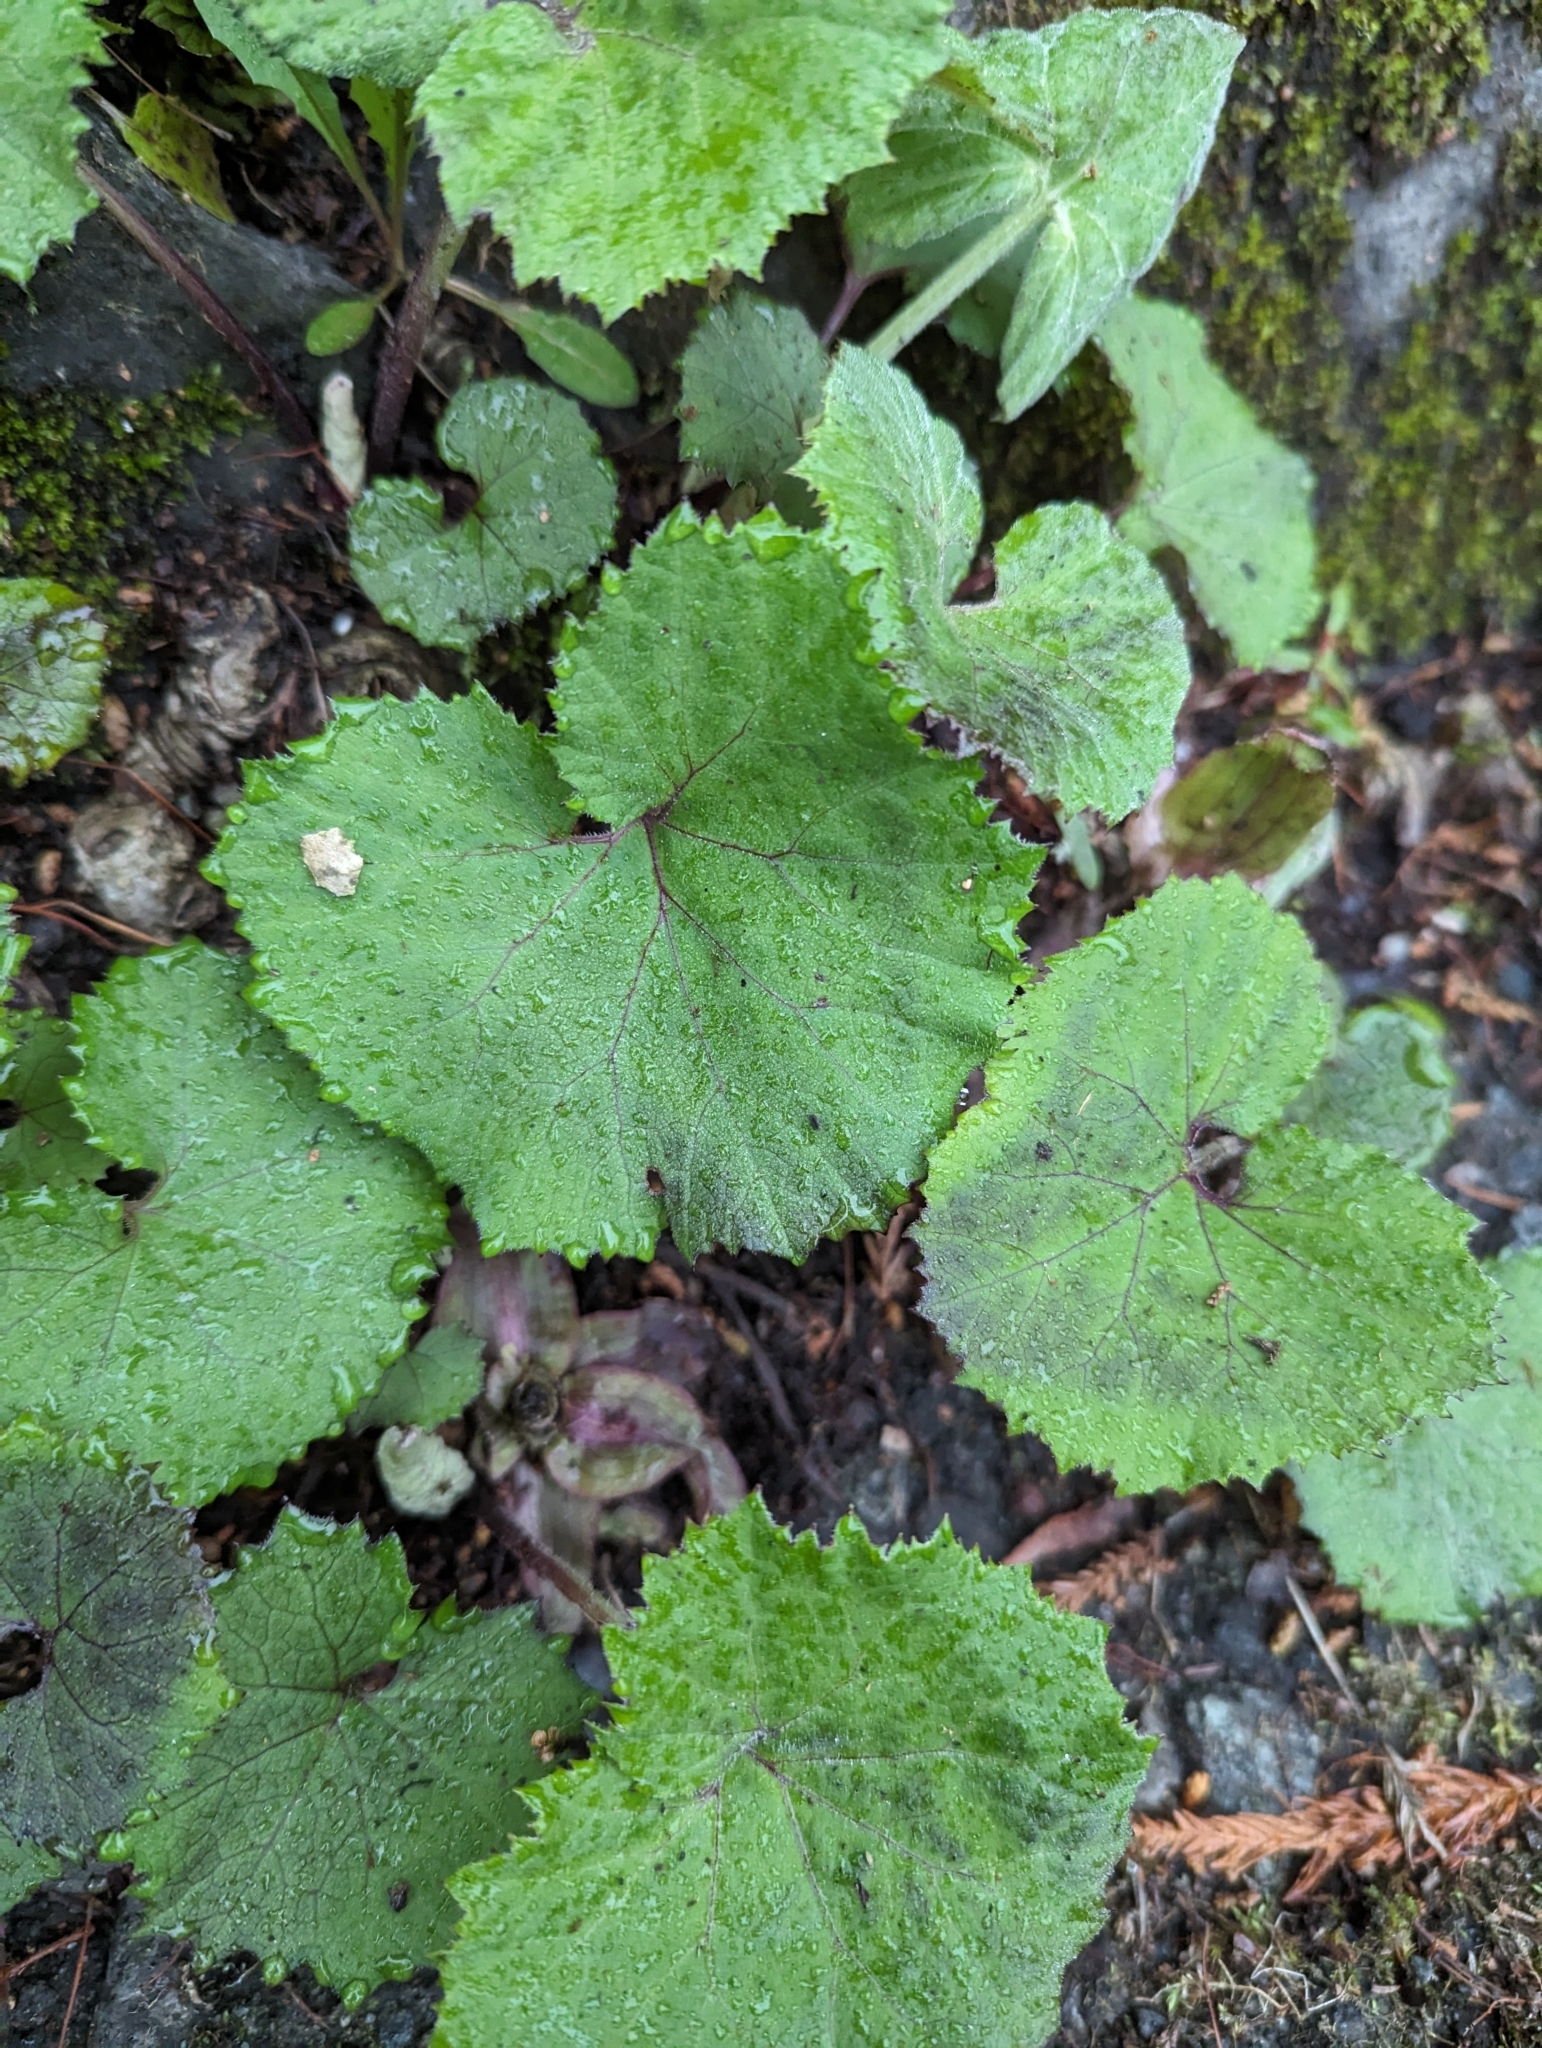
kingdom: Plantae
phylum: Tracheophyta
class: Magnoliopsida
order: Asterales
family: Asteraceae
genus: Petasites
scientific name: Petasites japonicus
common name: Giant butterbur
